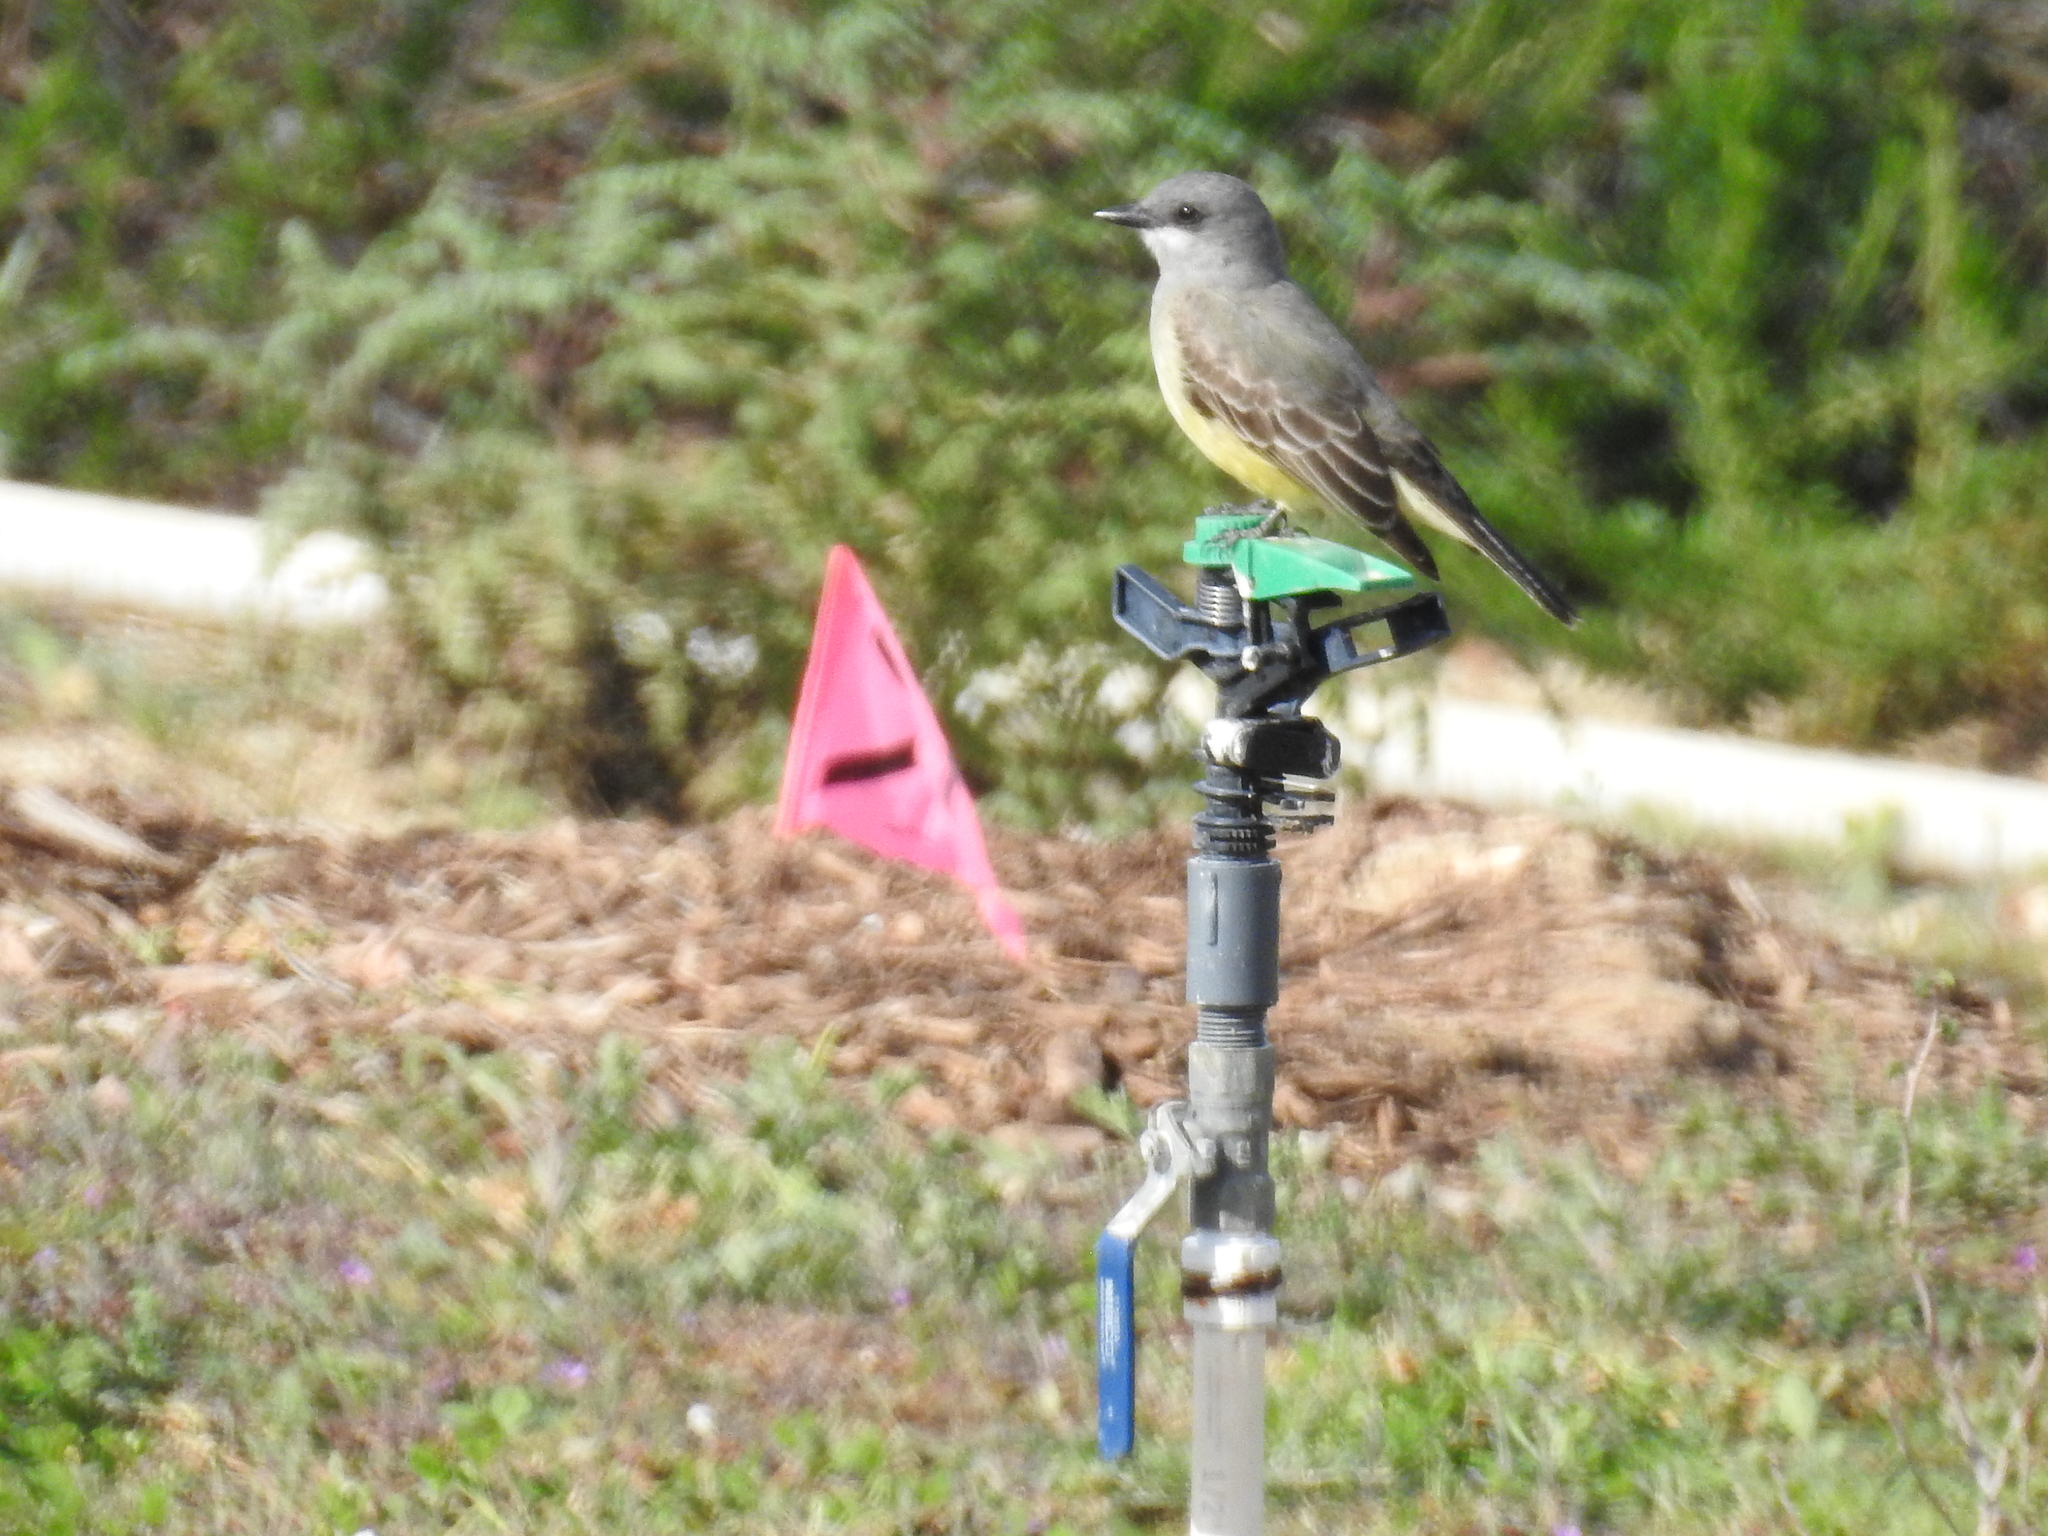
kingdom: Animalia
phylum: Chordata
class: Aves
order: Passeriformes
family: Tyrannidae
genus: Tyrannus
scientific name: Tyrannus vociferans
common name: Cassin's kingbird
